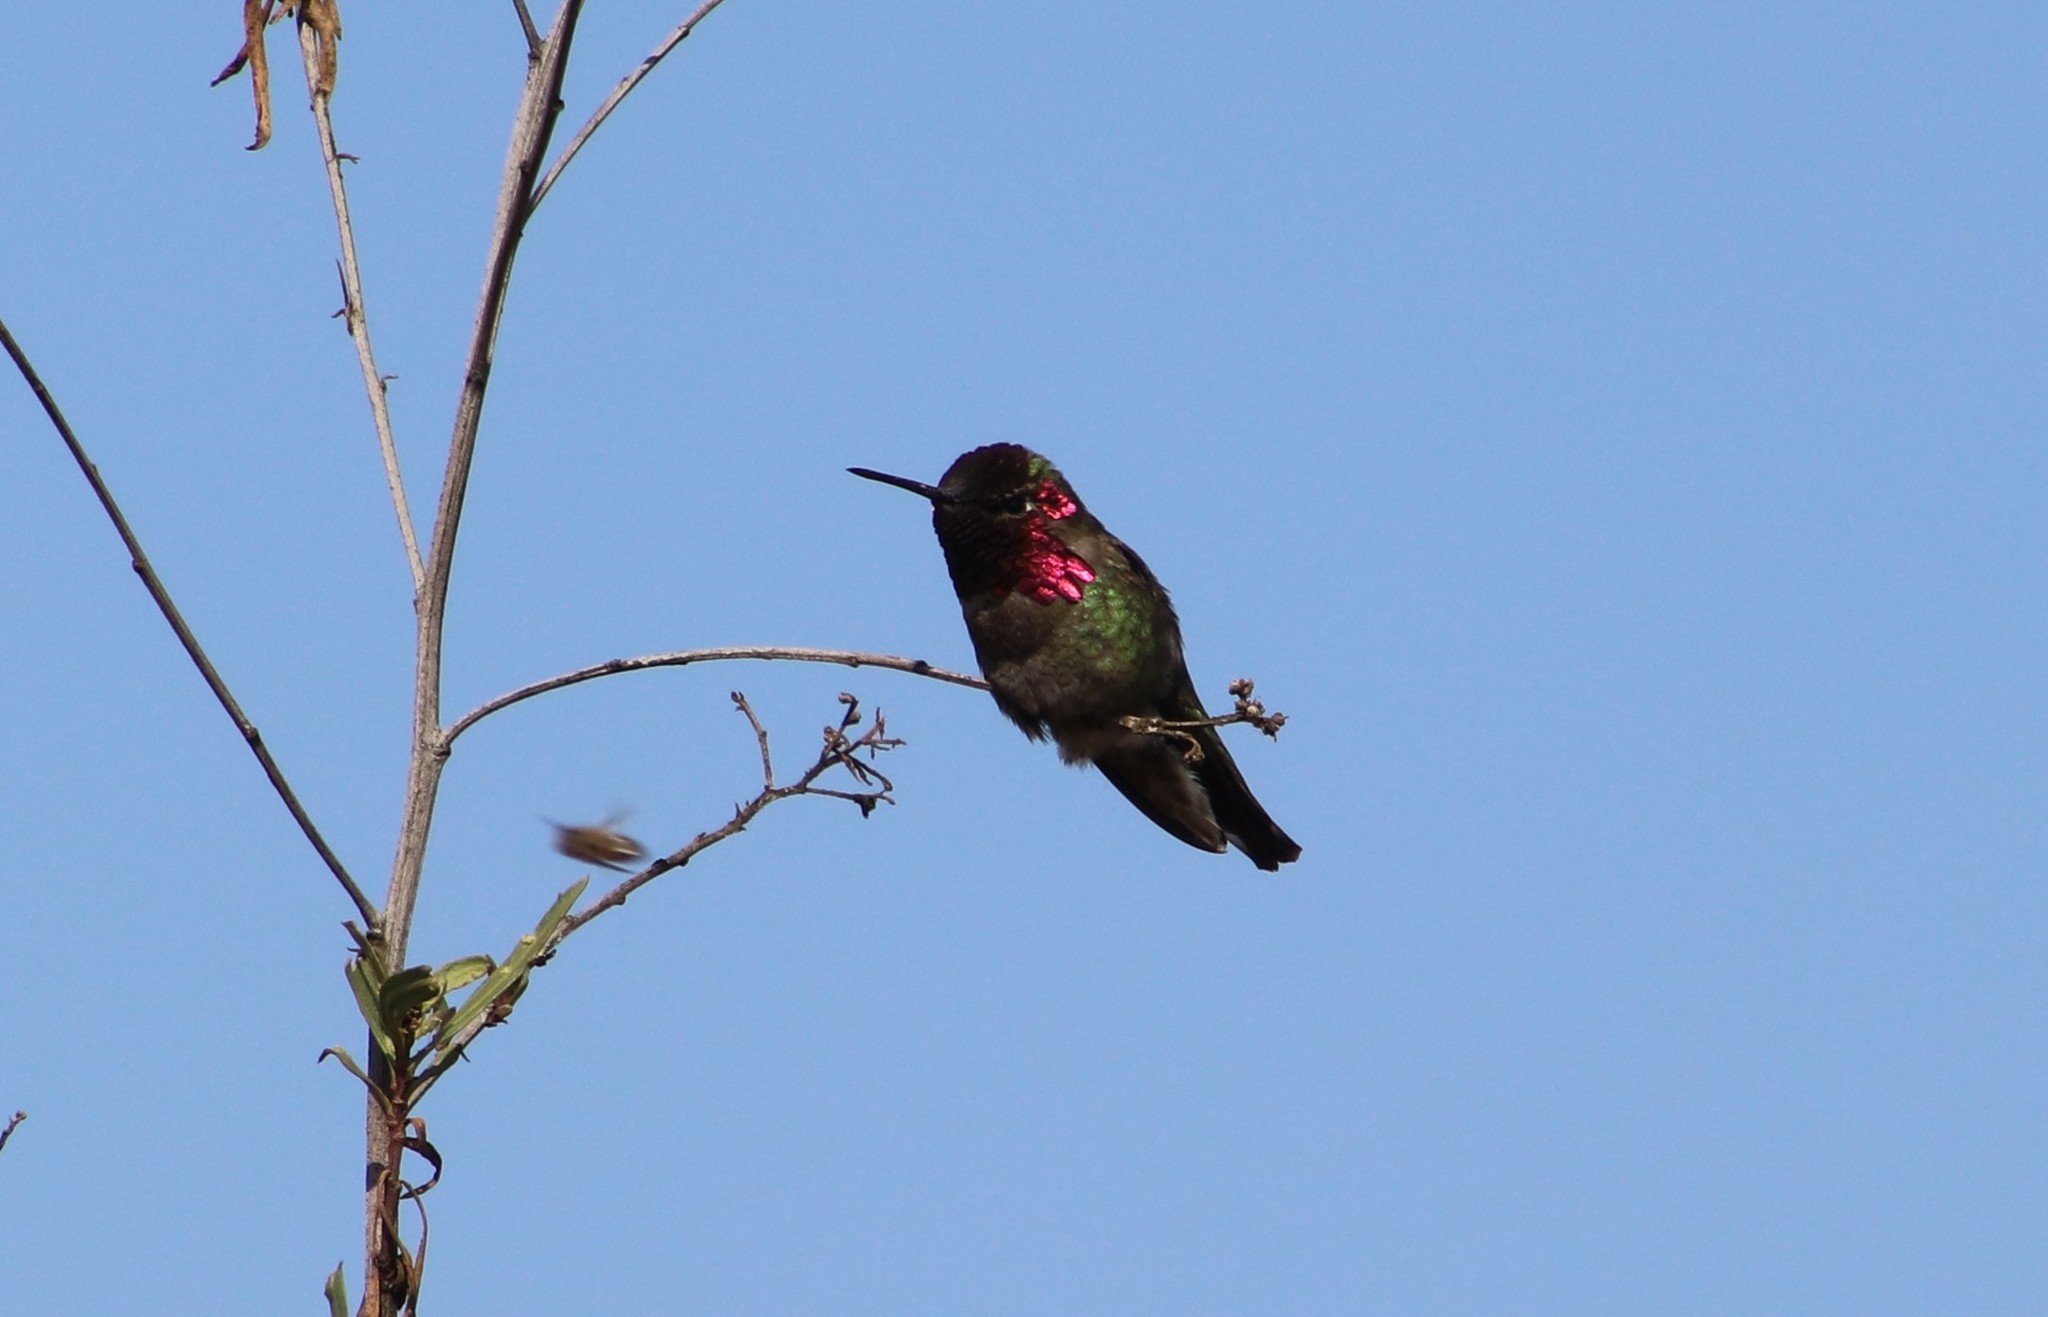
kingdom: Animalia
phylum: Chordata
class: Aves
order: Apodiformes
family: Trochilidae
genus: Calypte
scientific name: Calypte anna
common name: Anna's hummingbird
